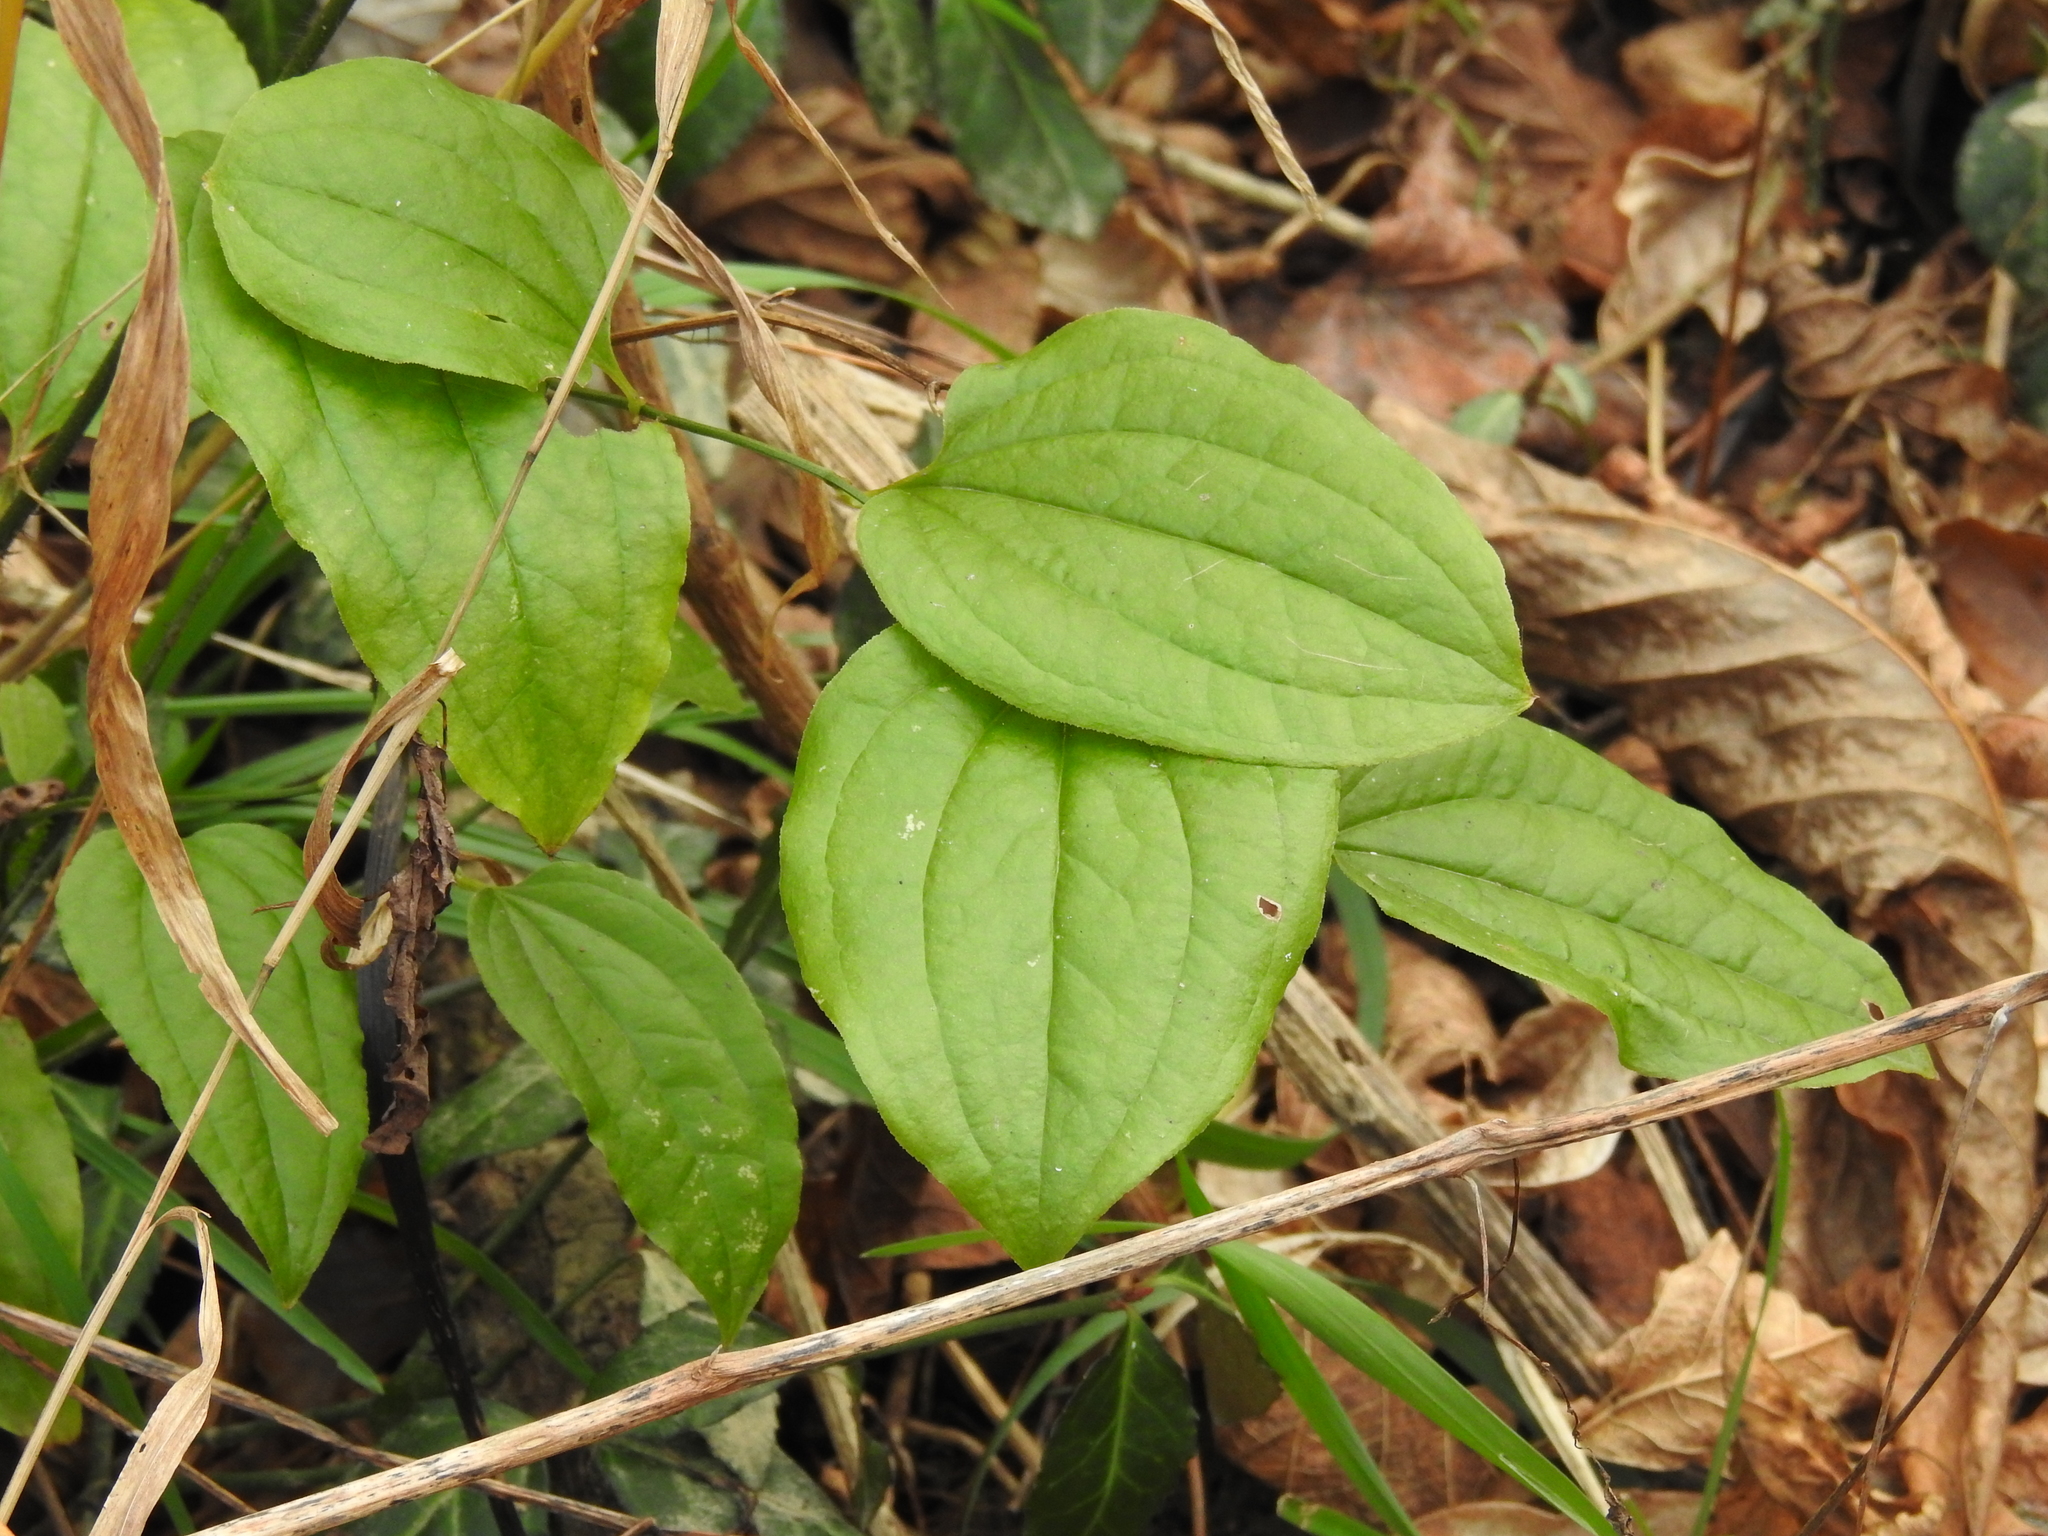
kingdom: Plantae
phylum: Tracheophyta
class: Liliopsida
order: Liliales
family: Smilacaceae
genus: Smilax
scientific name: Smilax tamnoides
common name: Hellfetter
